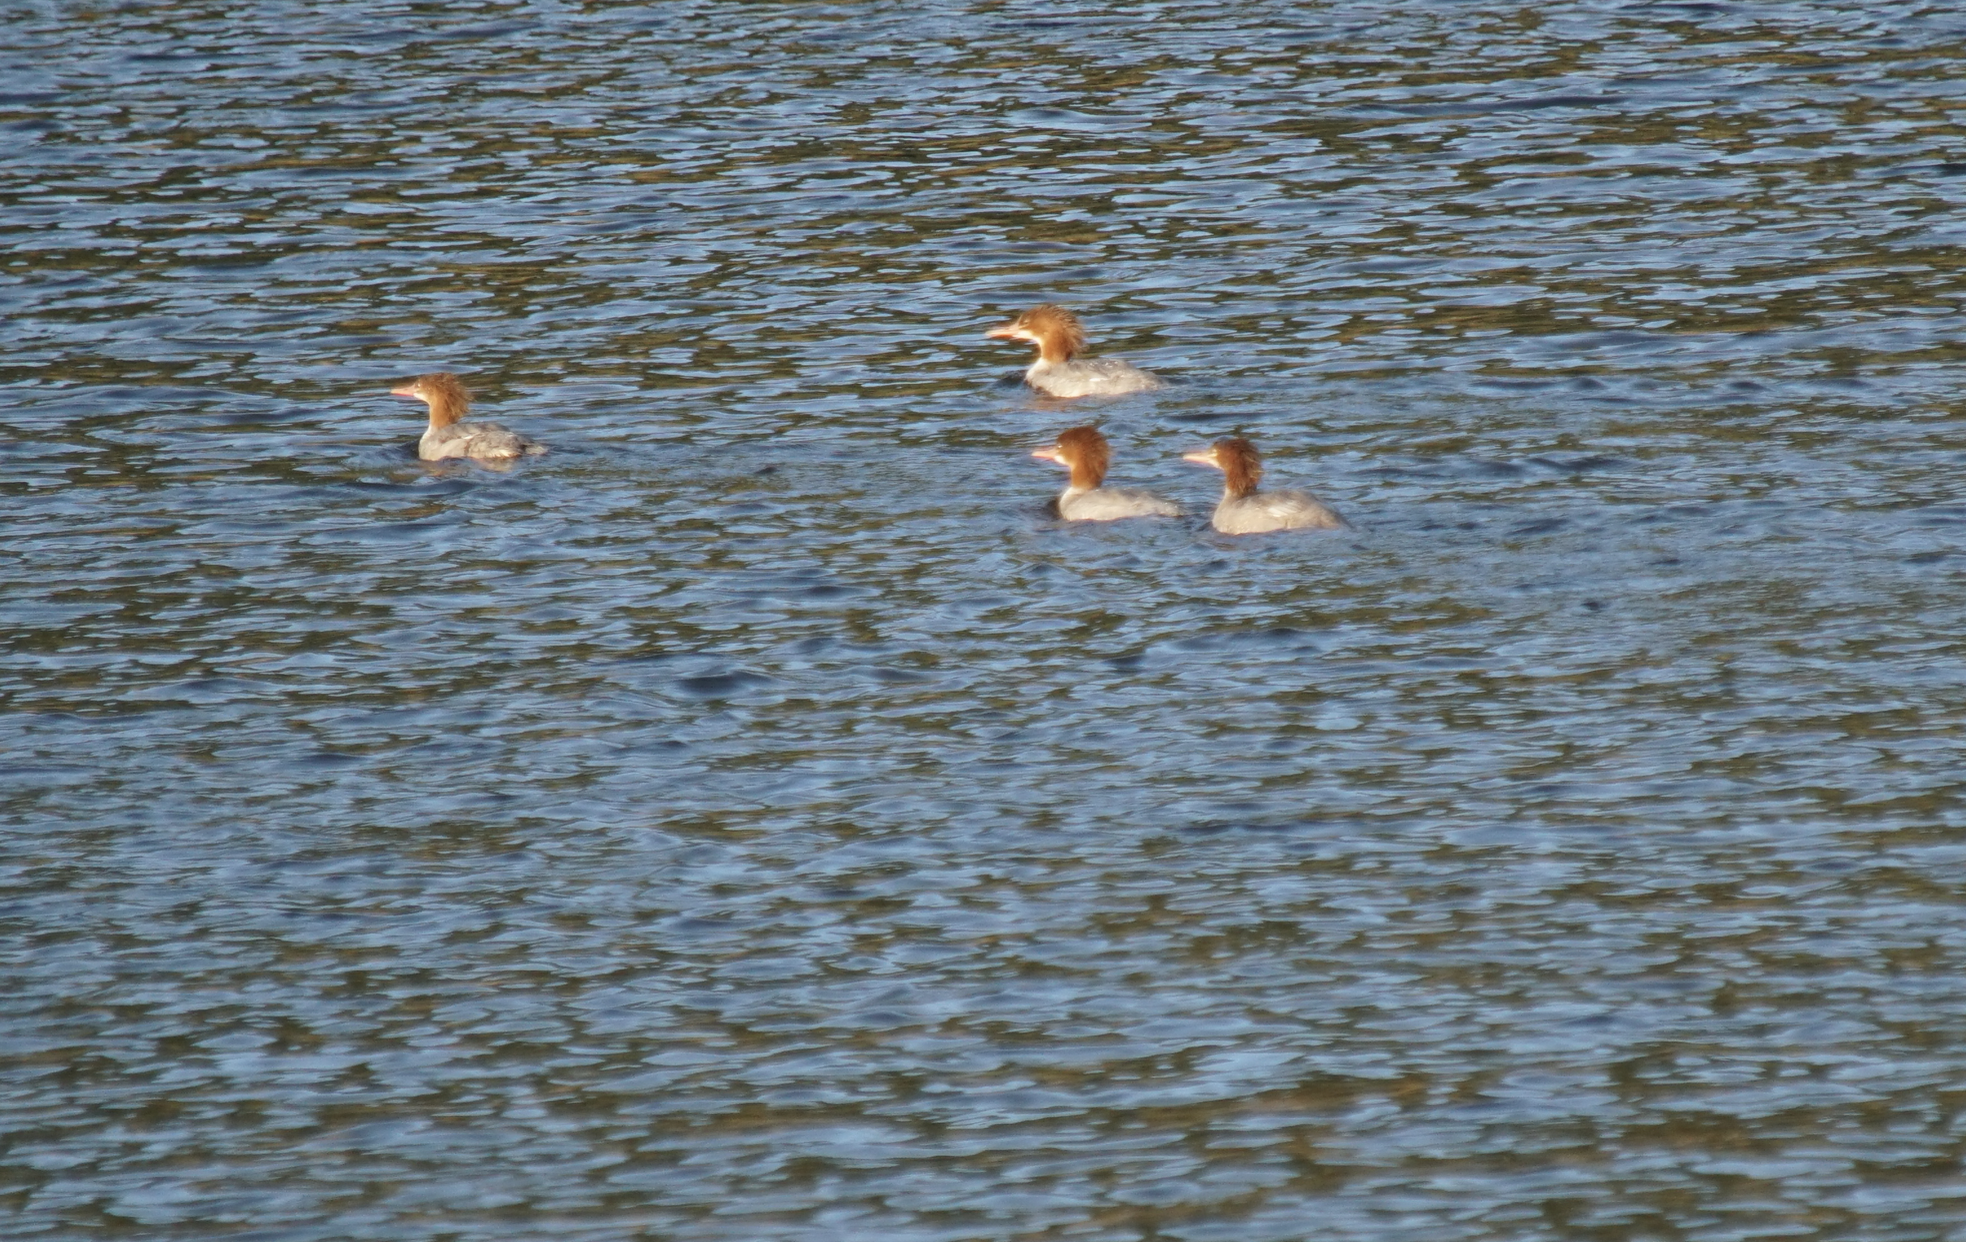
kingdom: Animalia
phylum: Chordata
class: Aves
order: Anseriformes
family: Anatidae
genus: Mergus
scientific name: Mergus merganser
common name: Common merganser
